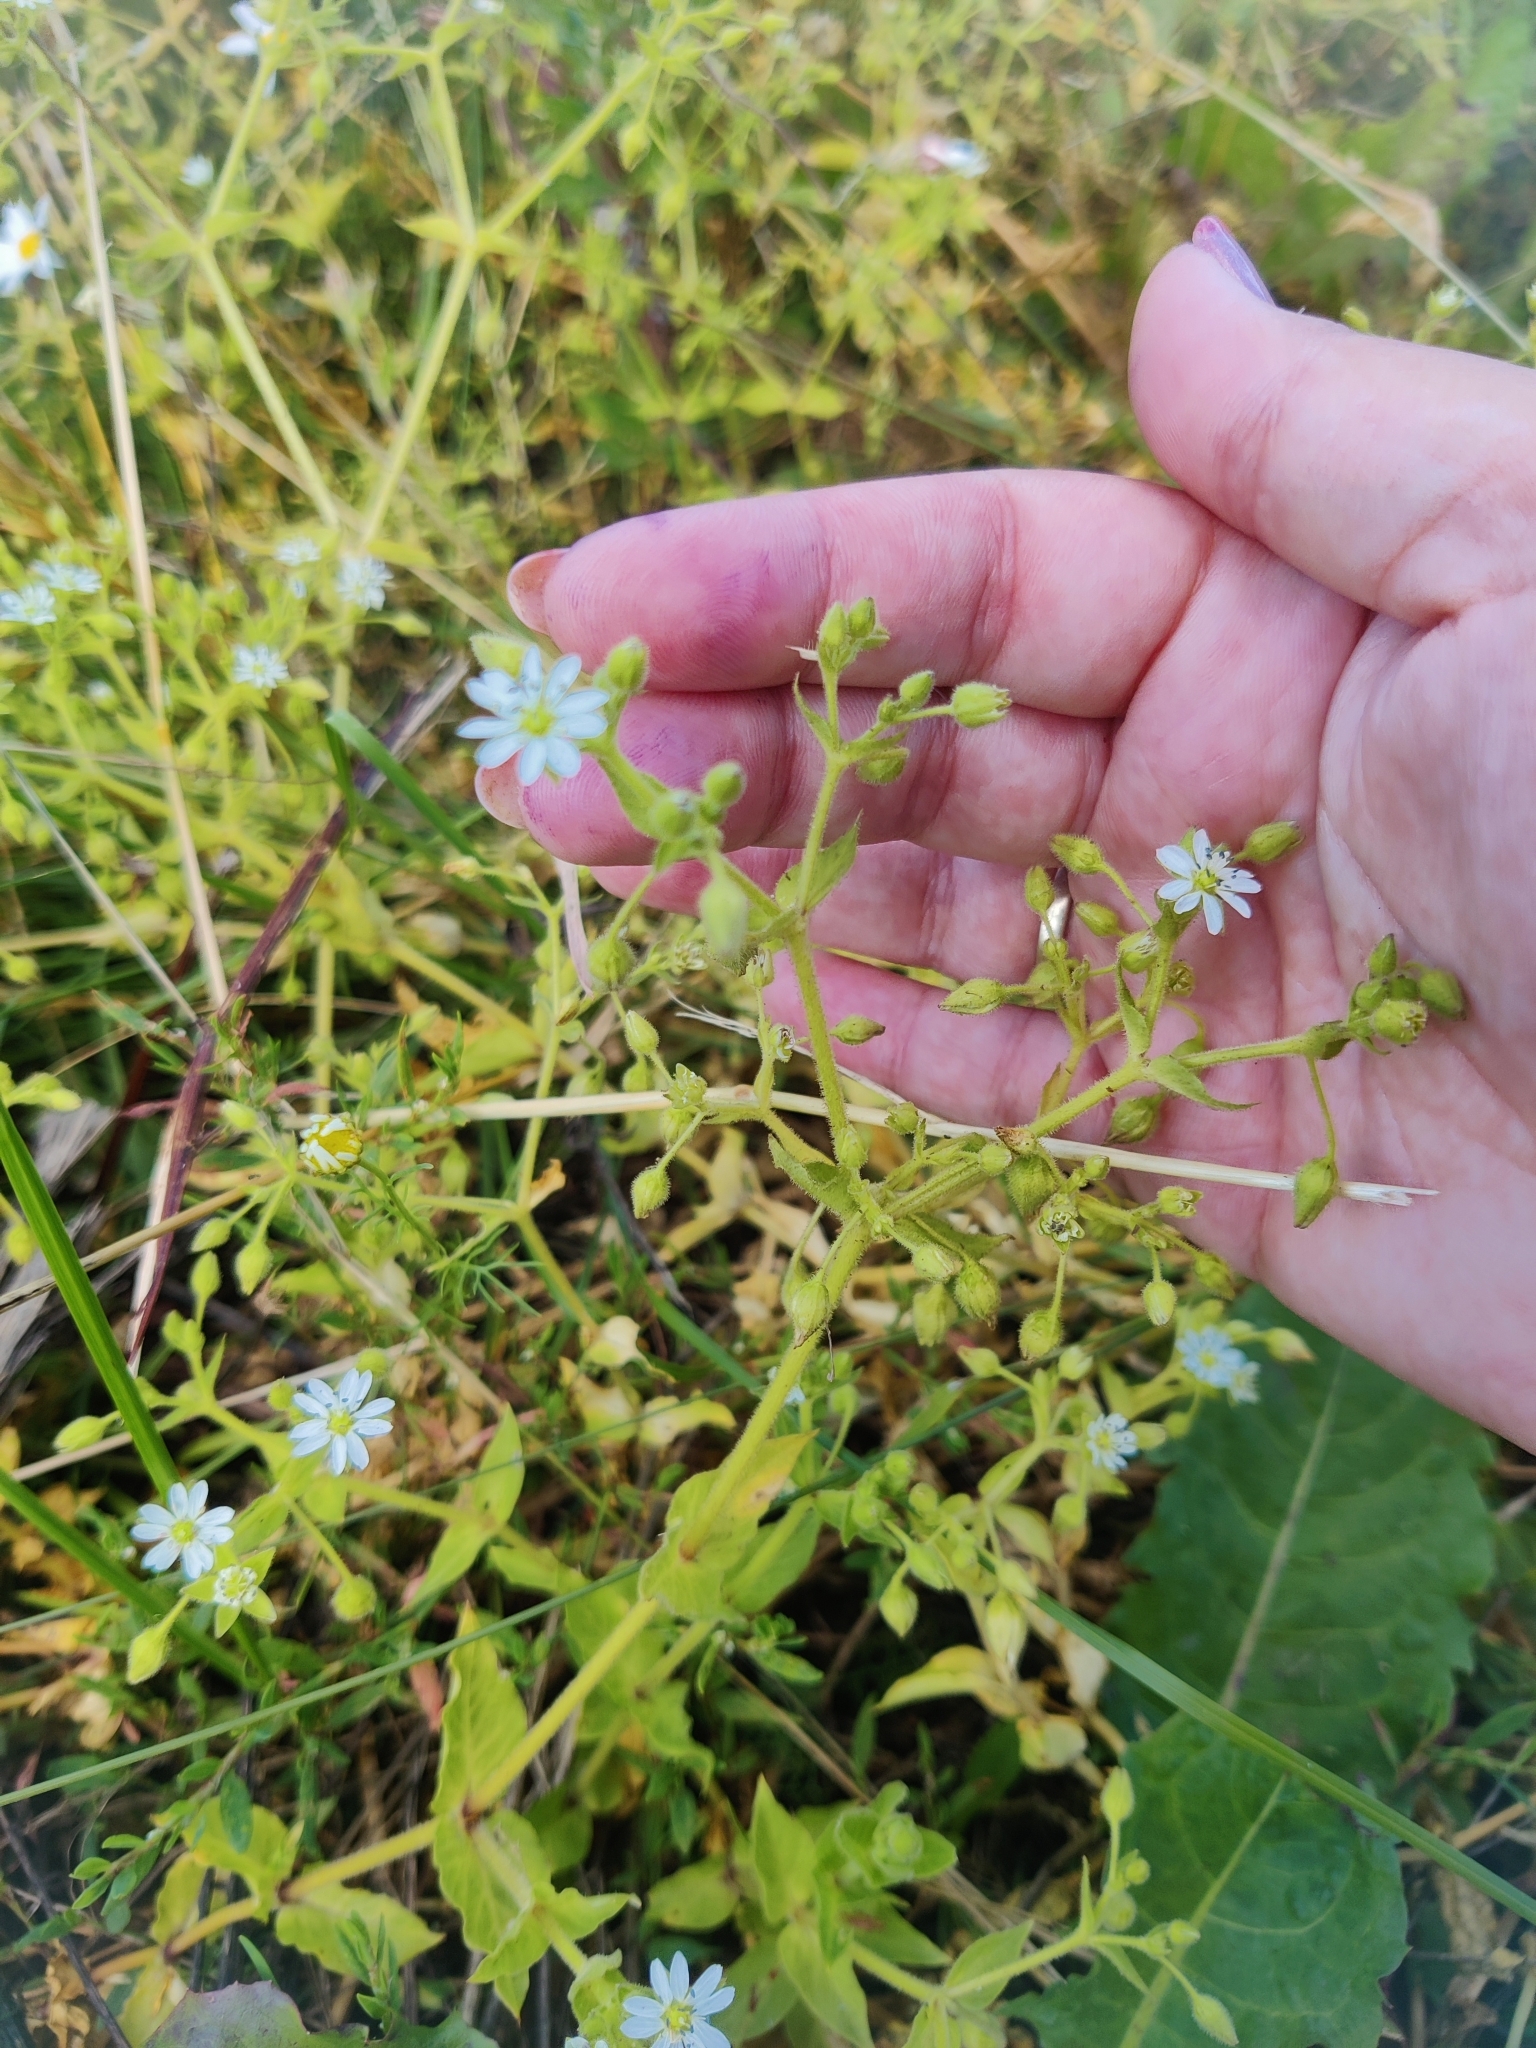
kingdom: Plantae
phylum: Tracheophyta
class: Magnoliopsida
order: Caryophyllales
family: Caryophyllaceae
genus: Stellaria
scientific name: Stellaria aquatica
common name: Water chickweed
